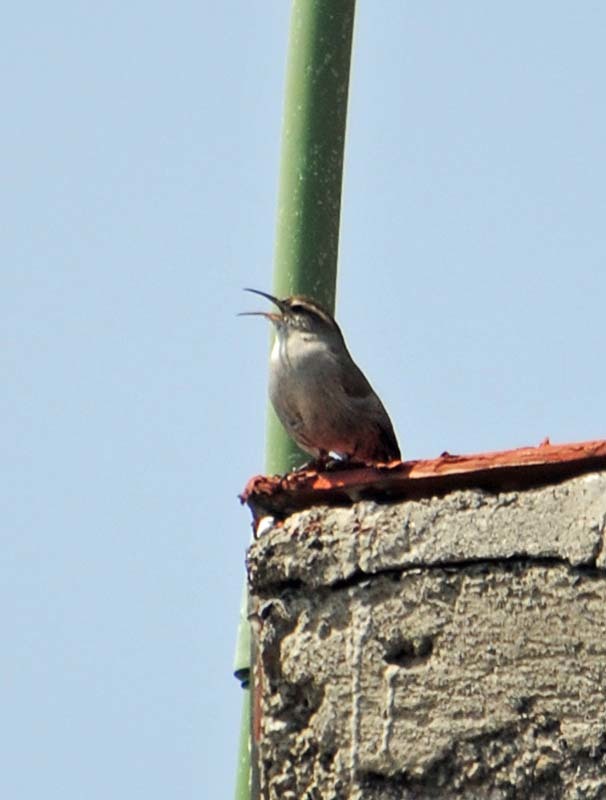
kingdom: Animalia
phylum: Chordata
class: Aves
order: Passeriformes
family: Troglodytidae
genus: Thryomanes
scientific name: Thryomanes bewickii
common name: Bewick's wren
